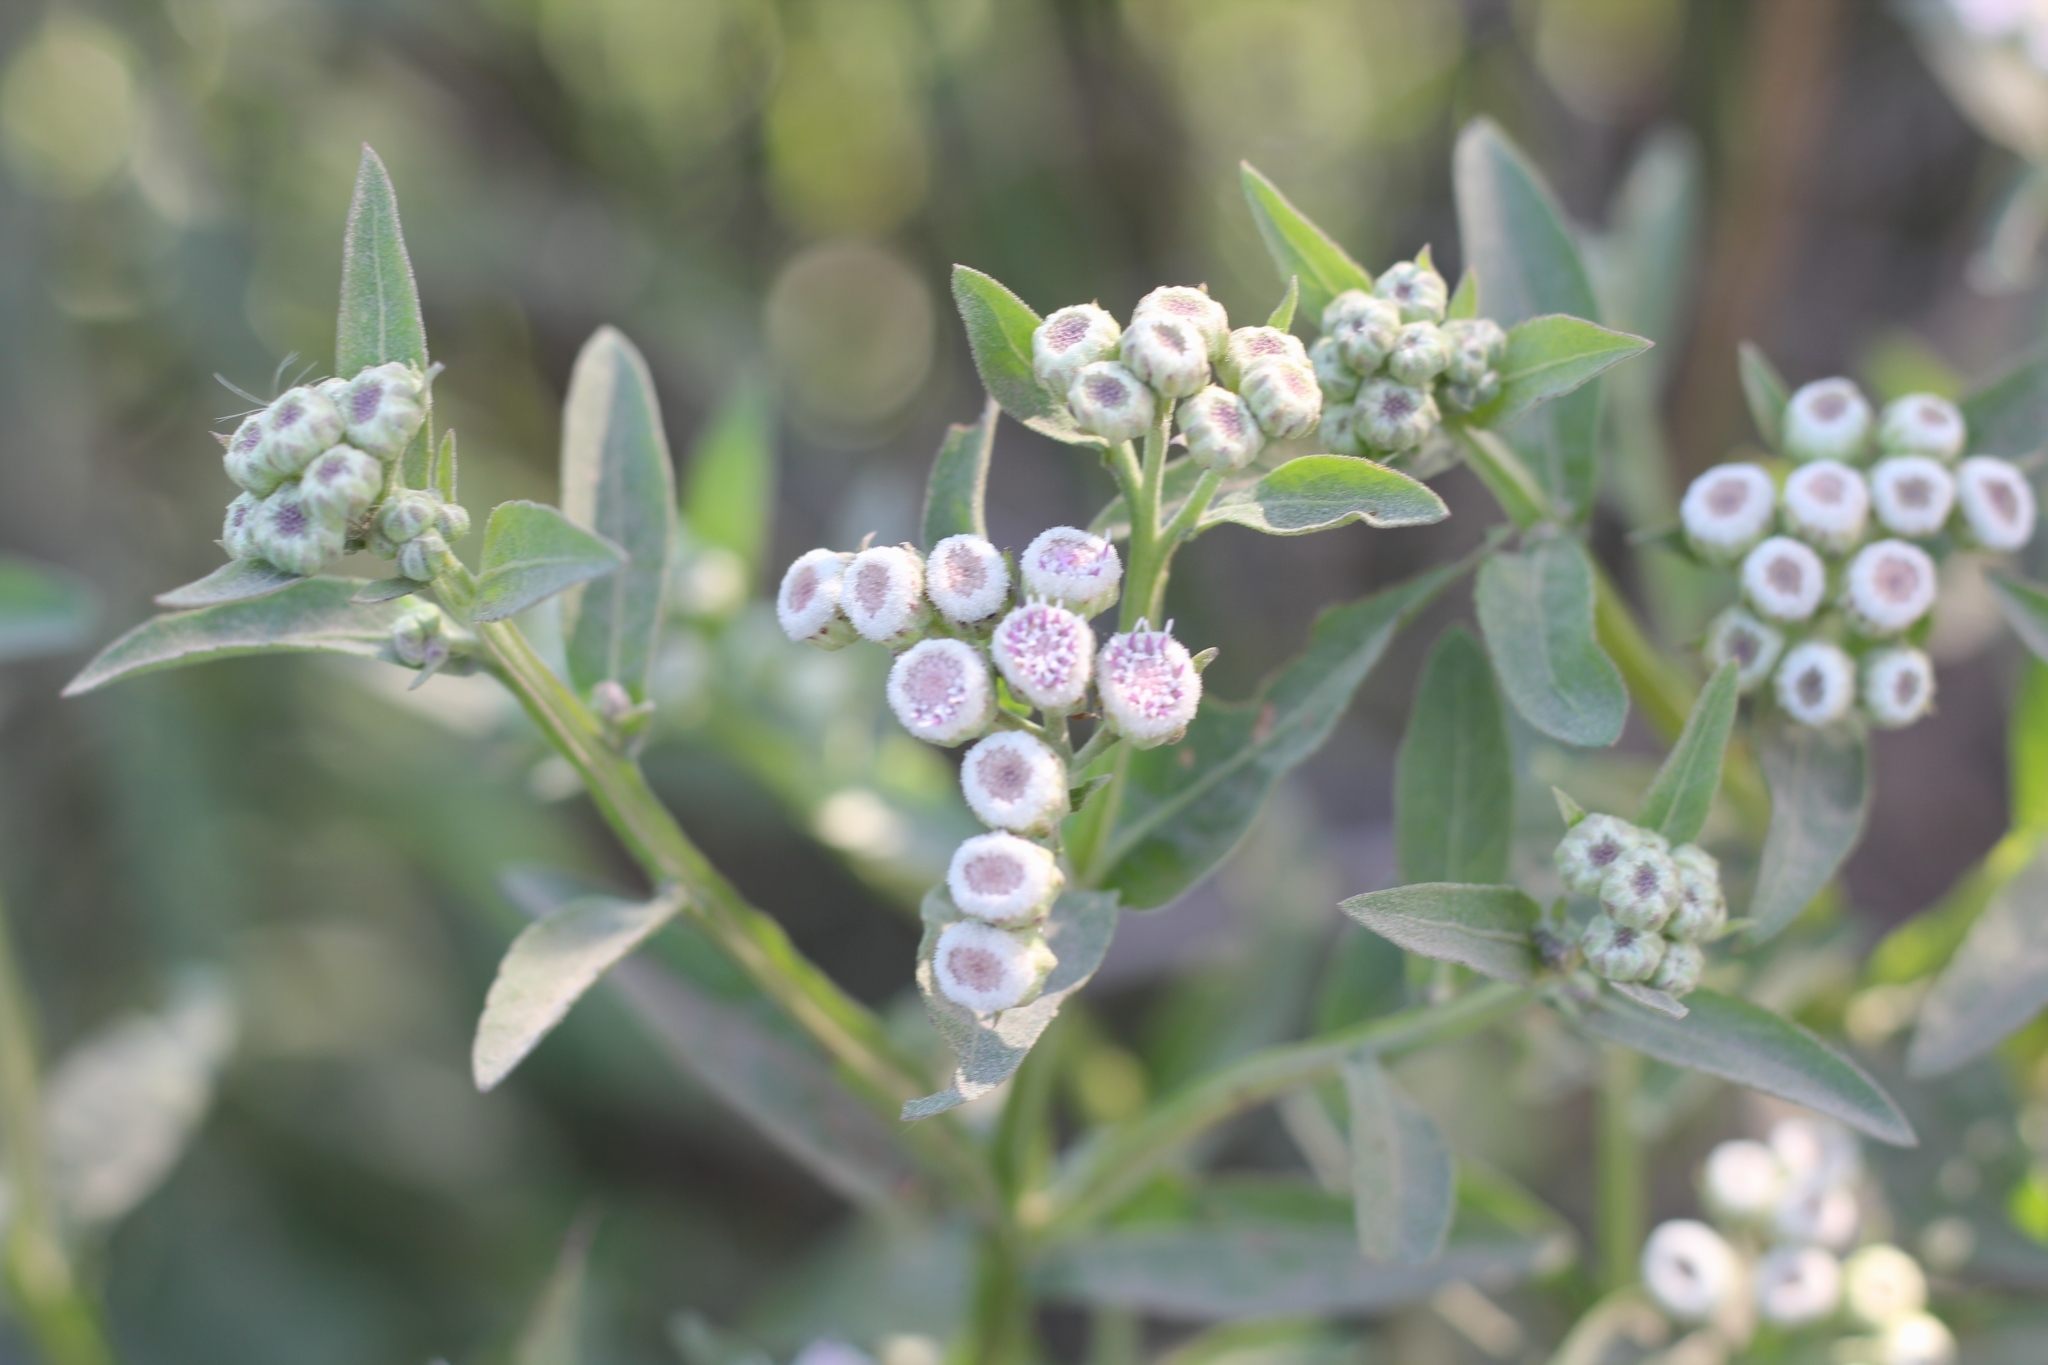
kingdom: Plantae
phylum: Tracheophyta
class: Magnoliopsida
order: Asterales
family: Asteraceae
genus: Pluchea
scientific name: Pluchea sagittalis
